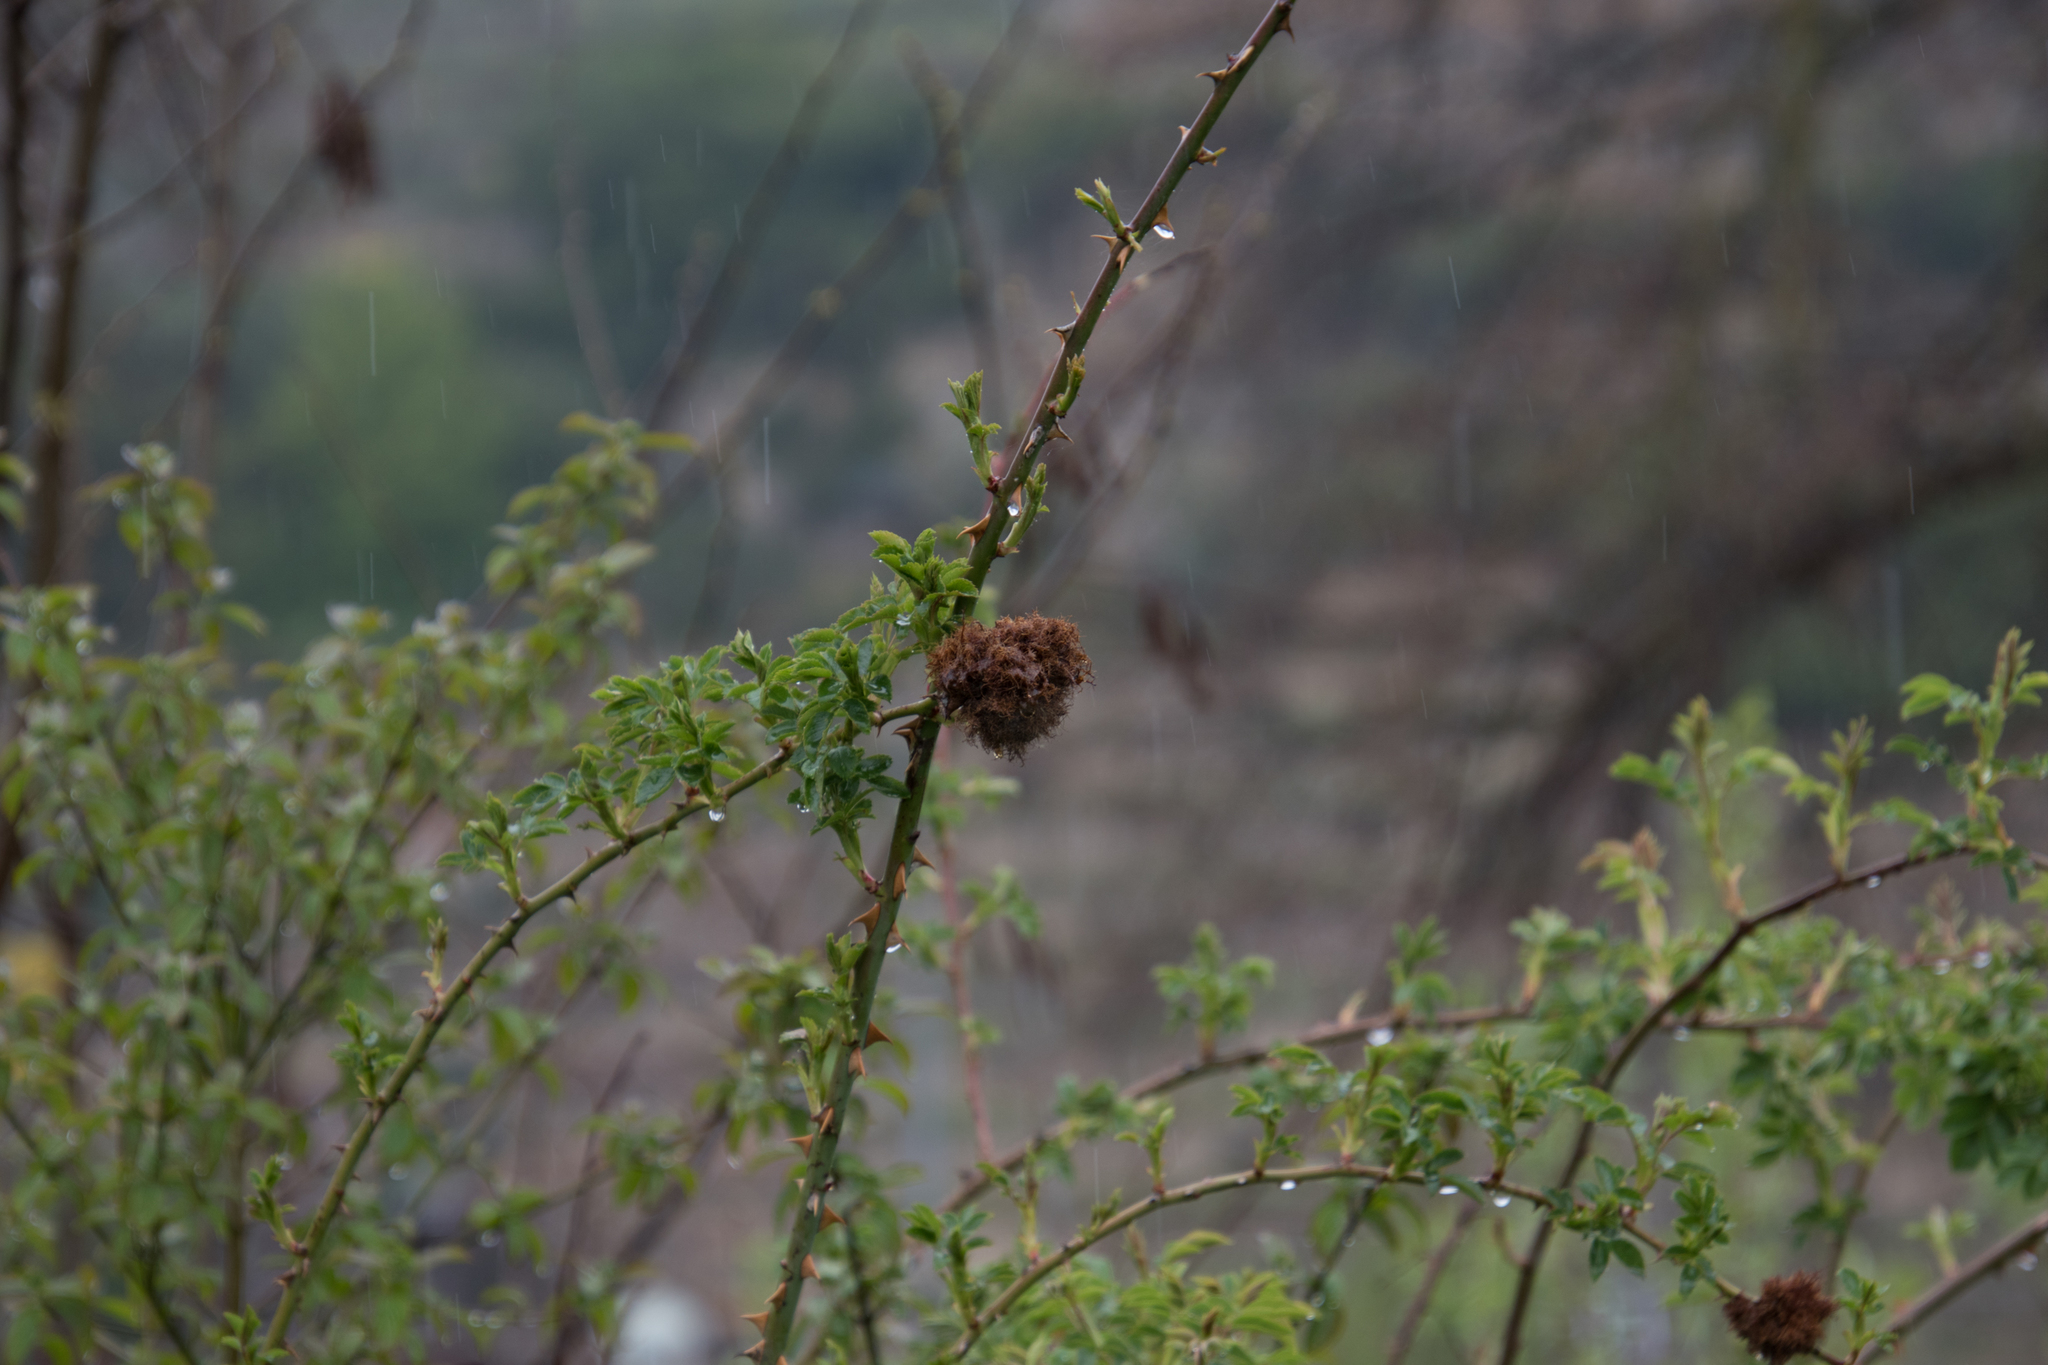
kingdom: Animalia
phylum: Arthropoda
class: Insecta
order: Hymenoptera
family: Cynipidae
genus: Diplolepis
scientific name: Diplolepis rosae
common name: Bedeguar gall
